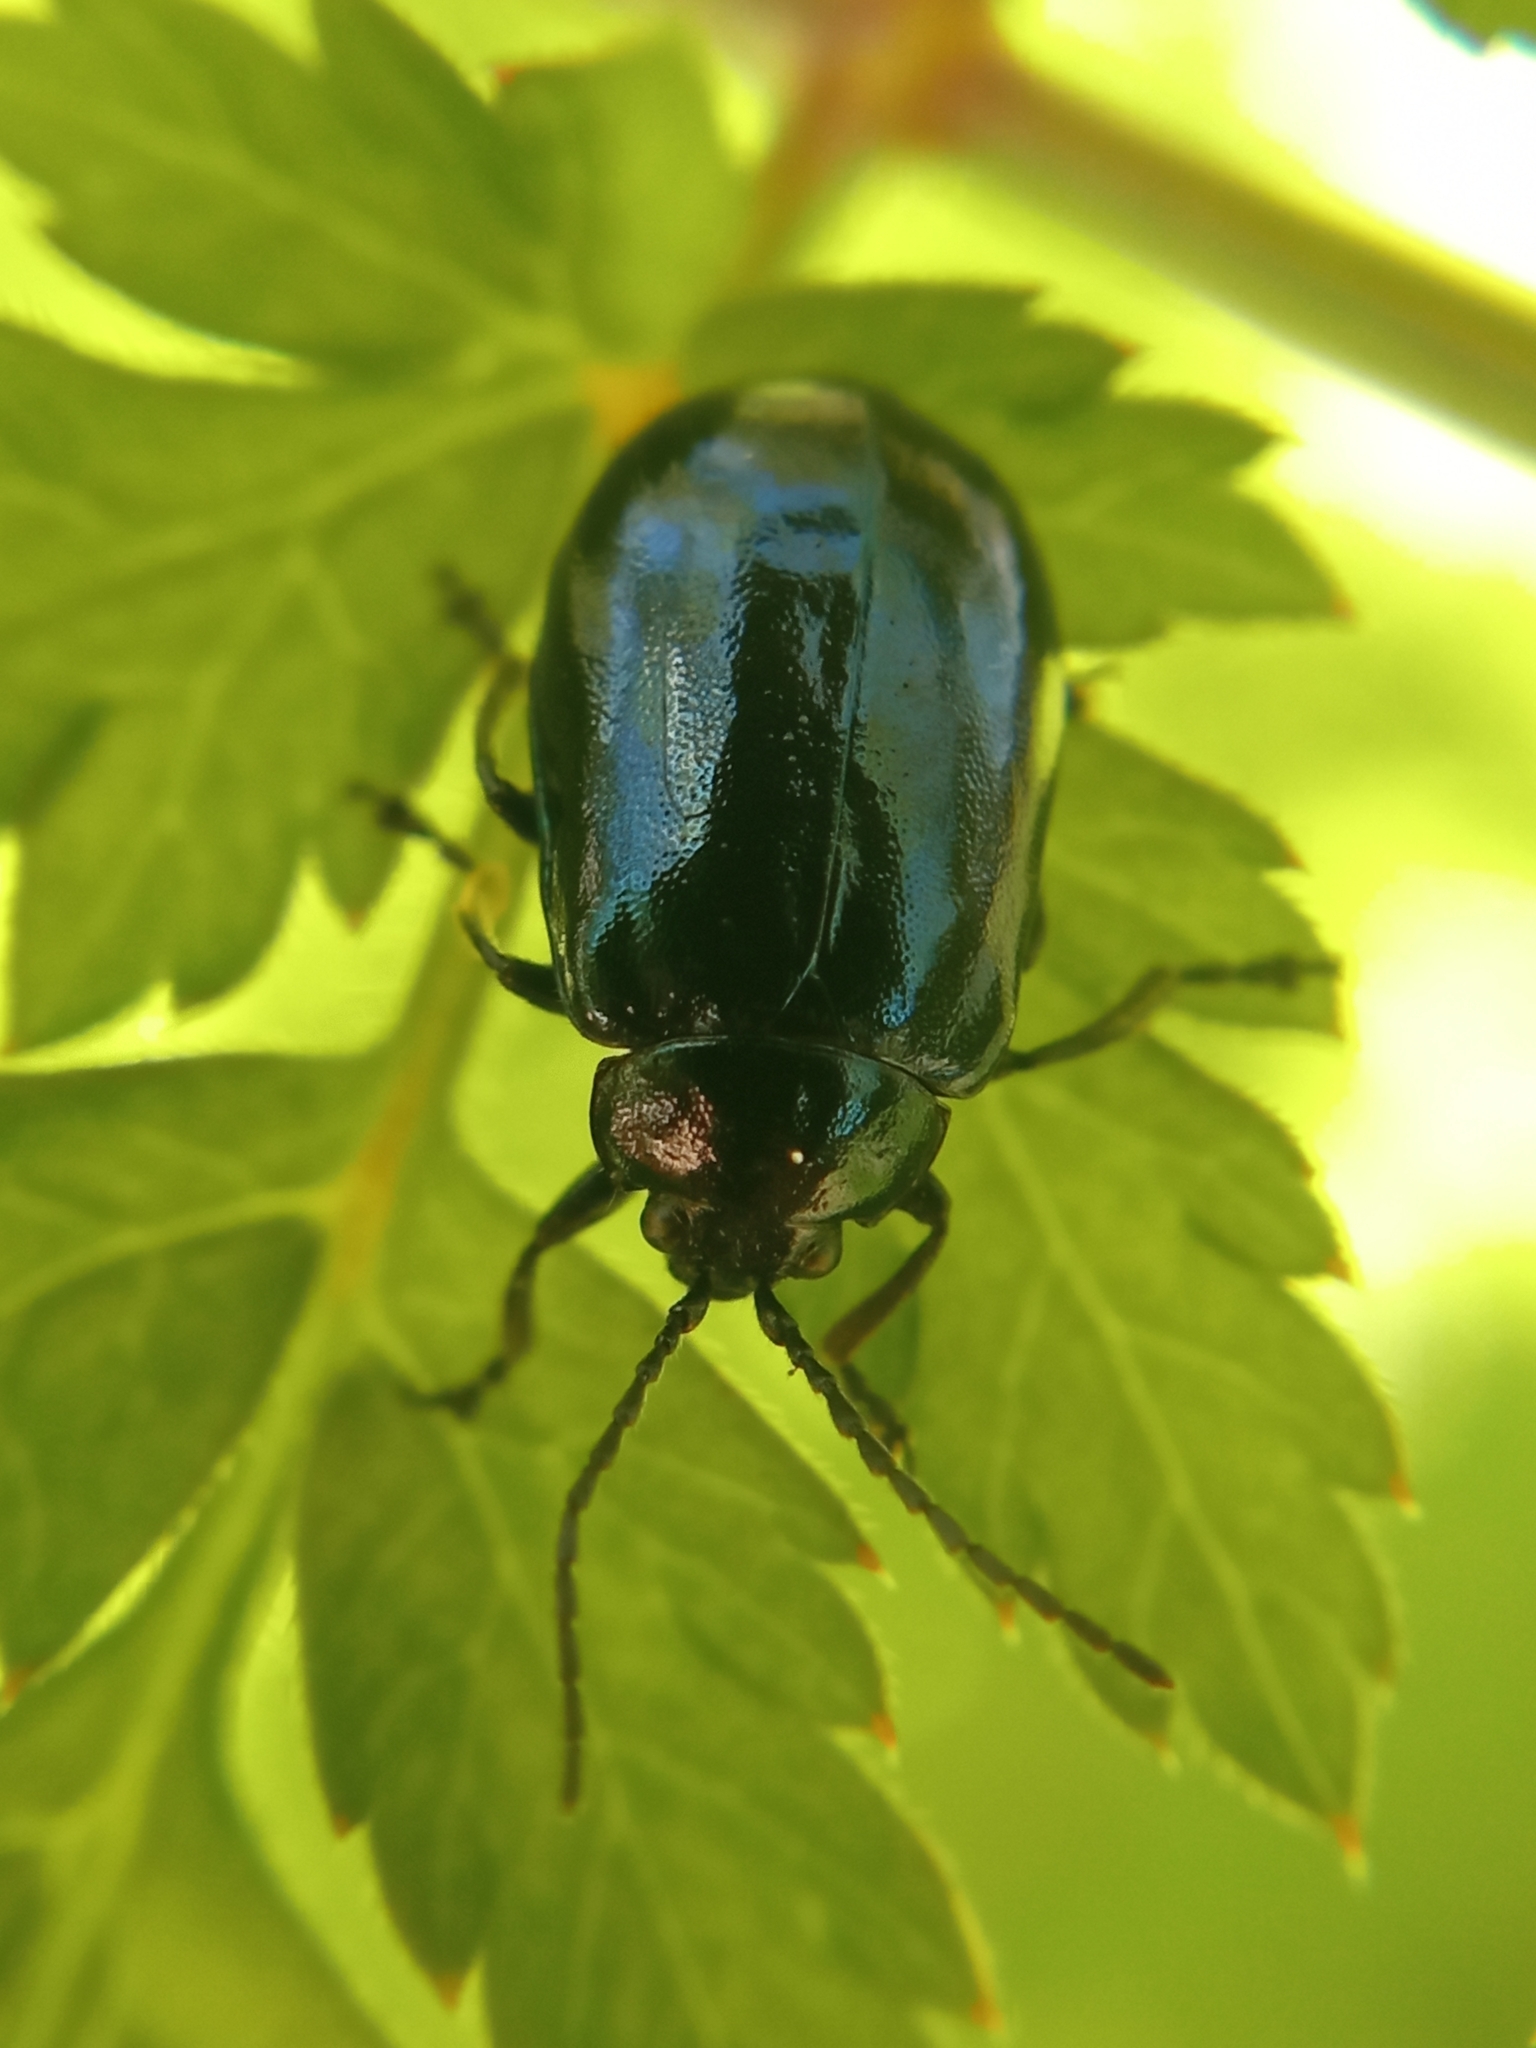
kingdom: Animalia
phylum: Arthropoda
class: Insecta
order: Coleoptera
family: Chrysomelidae
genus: Agelastica
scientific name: Agelastica alni
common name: Alder leaf beetle
